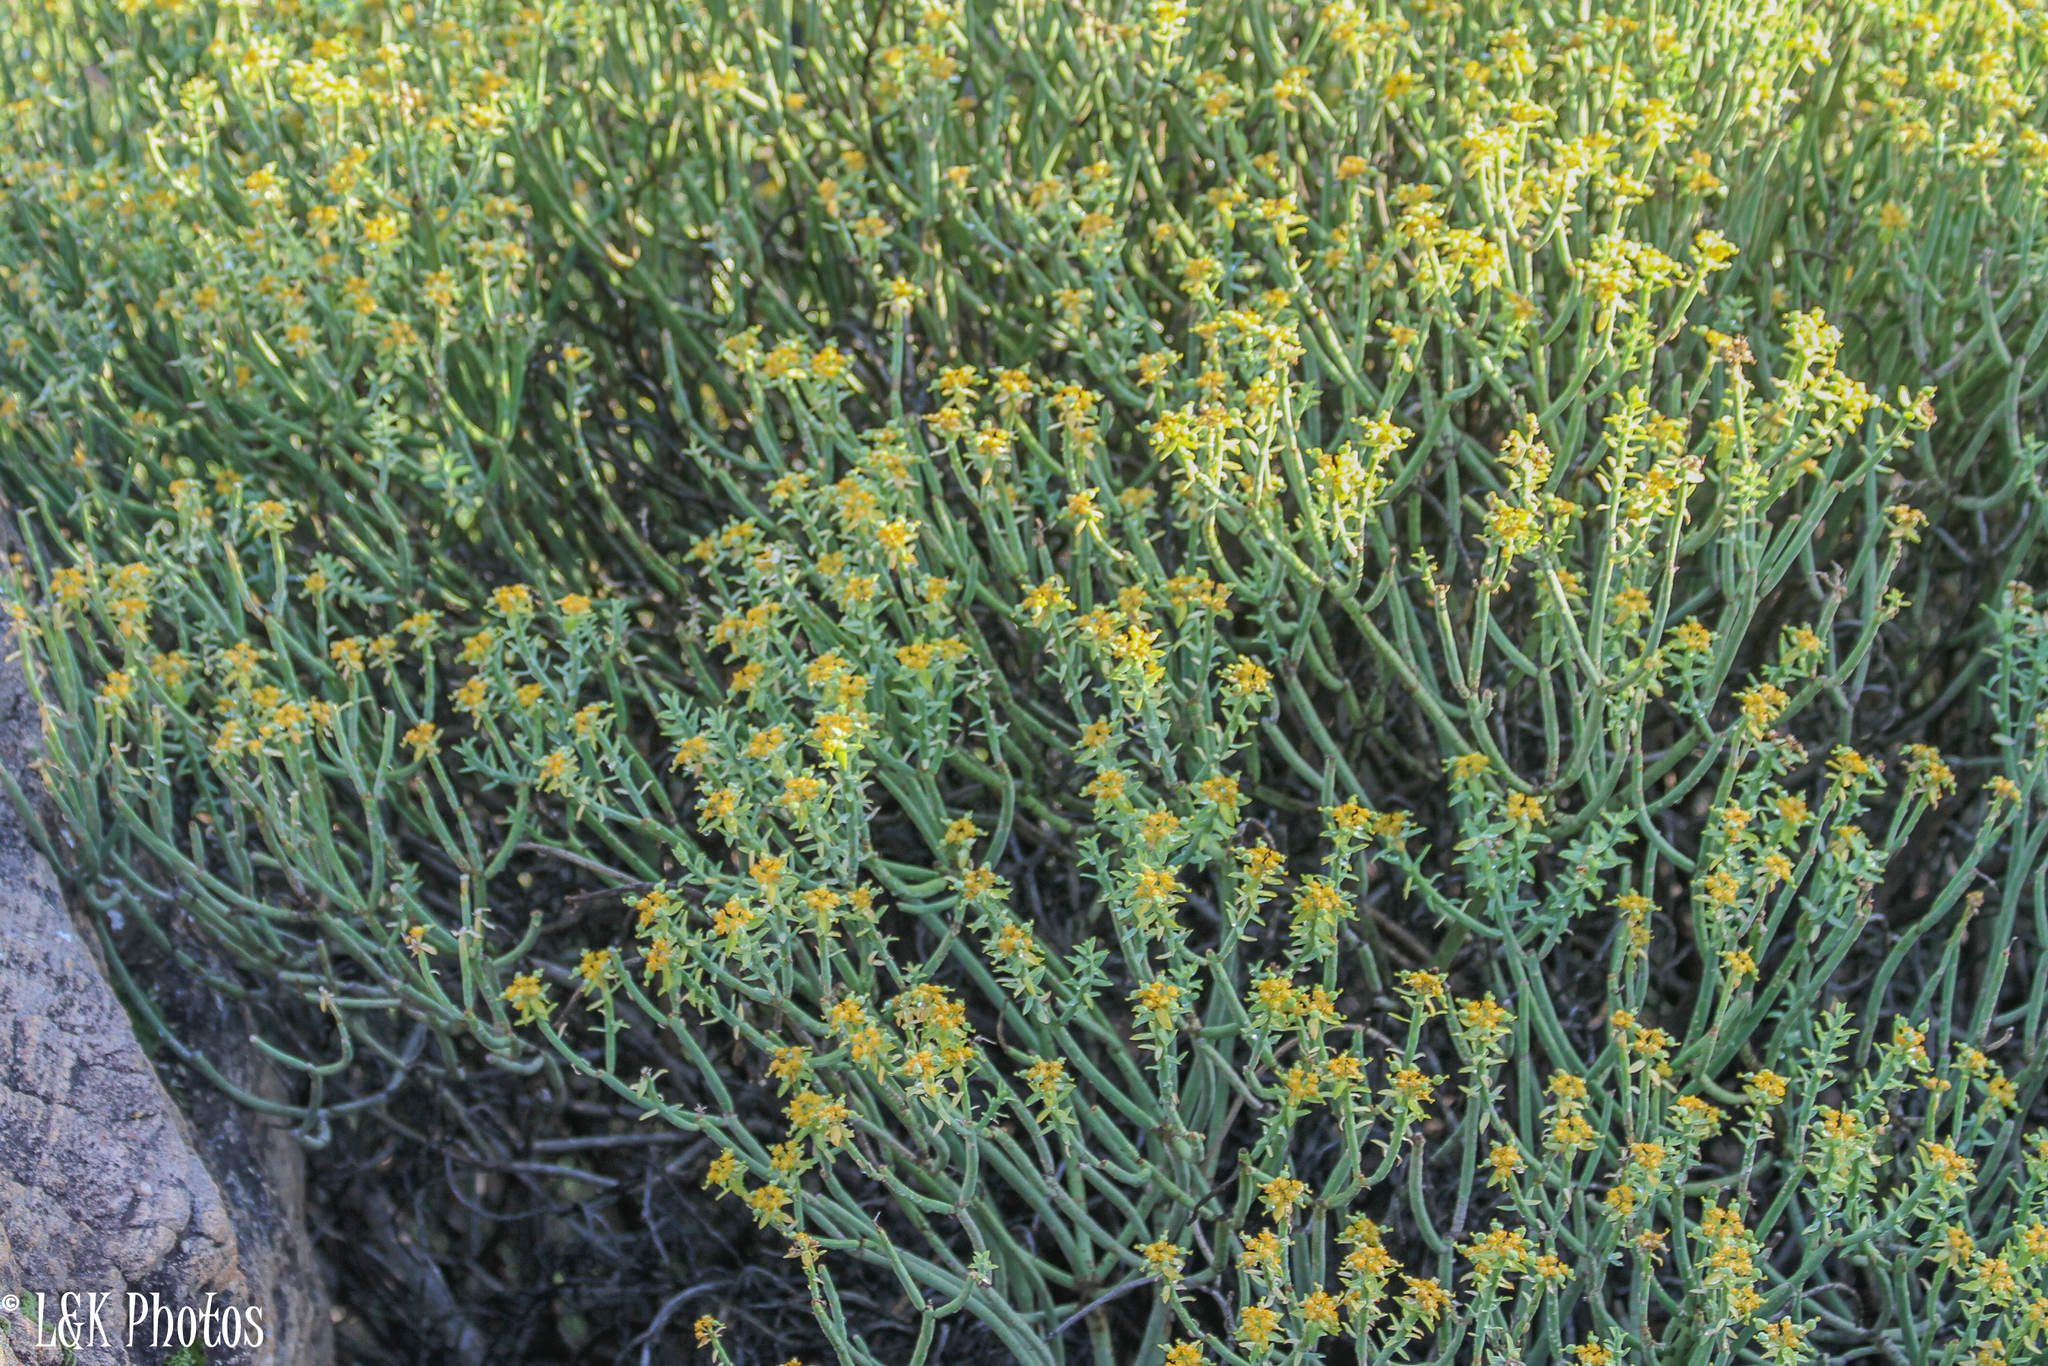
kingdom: Plantae
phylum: Tracheophyta
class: Magnoliopsida
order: Malpighiales
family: Euphorbiaceae
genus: Euphorbia
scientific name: Euphorbia mauritanica
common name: Jackal's-food
